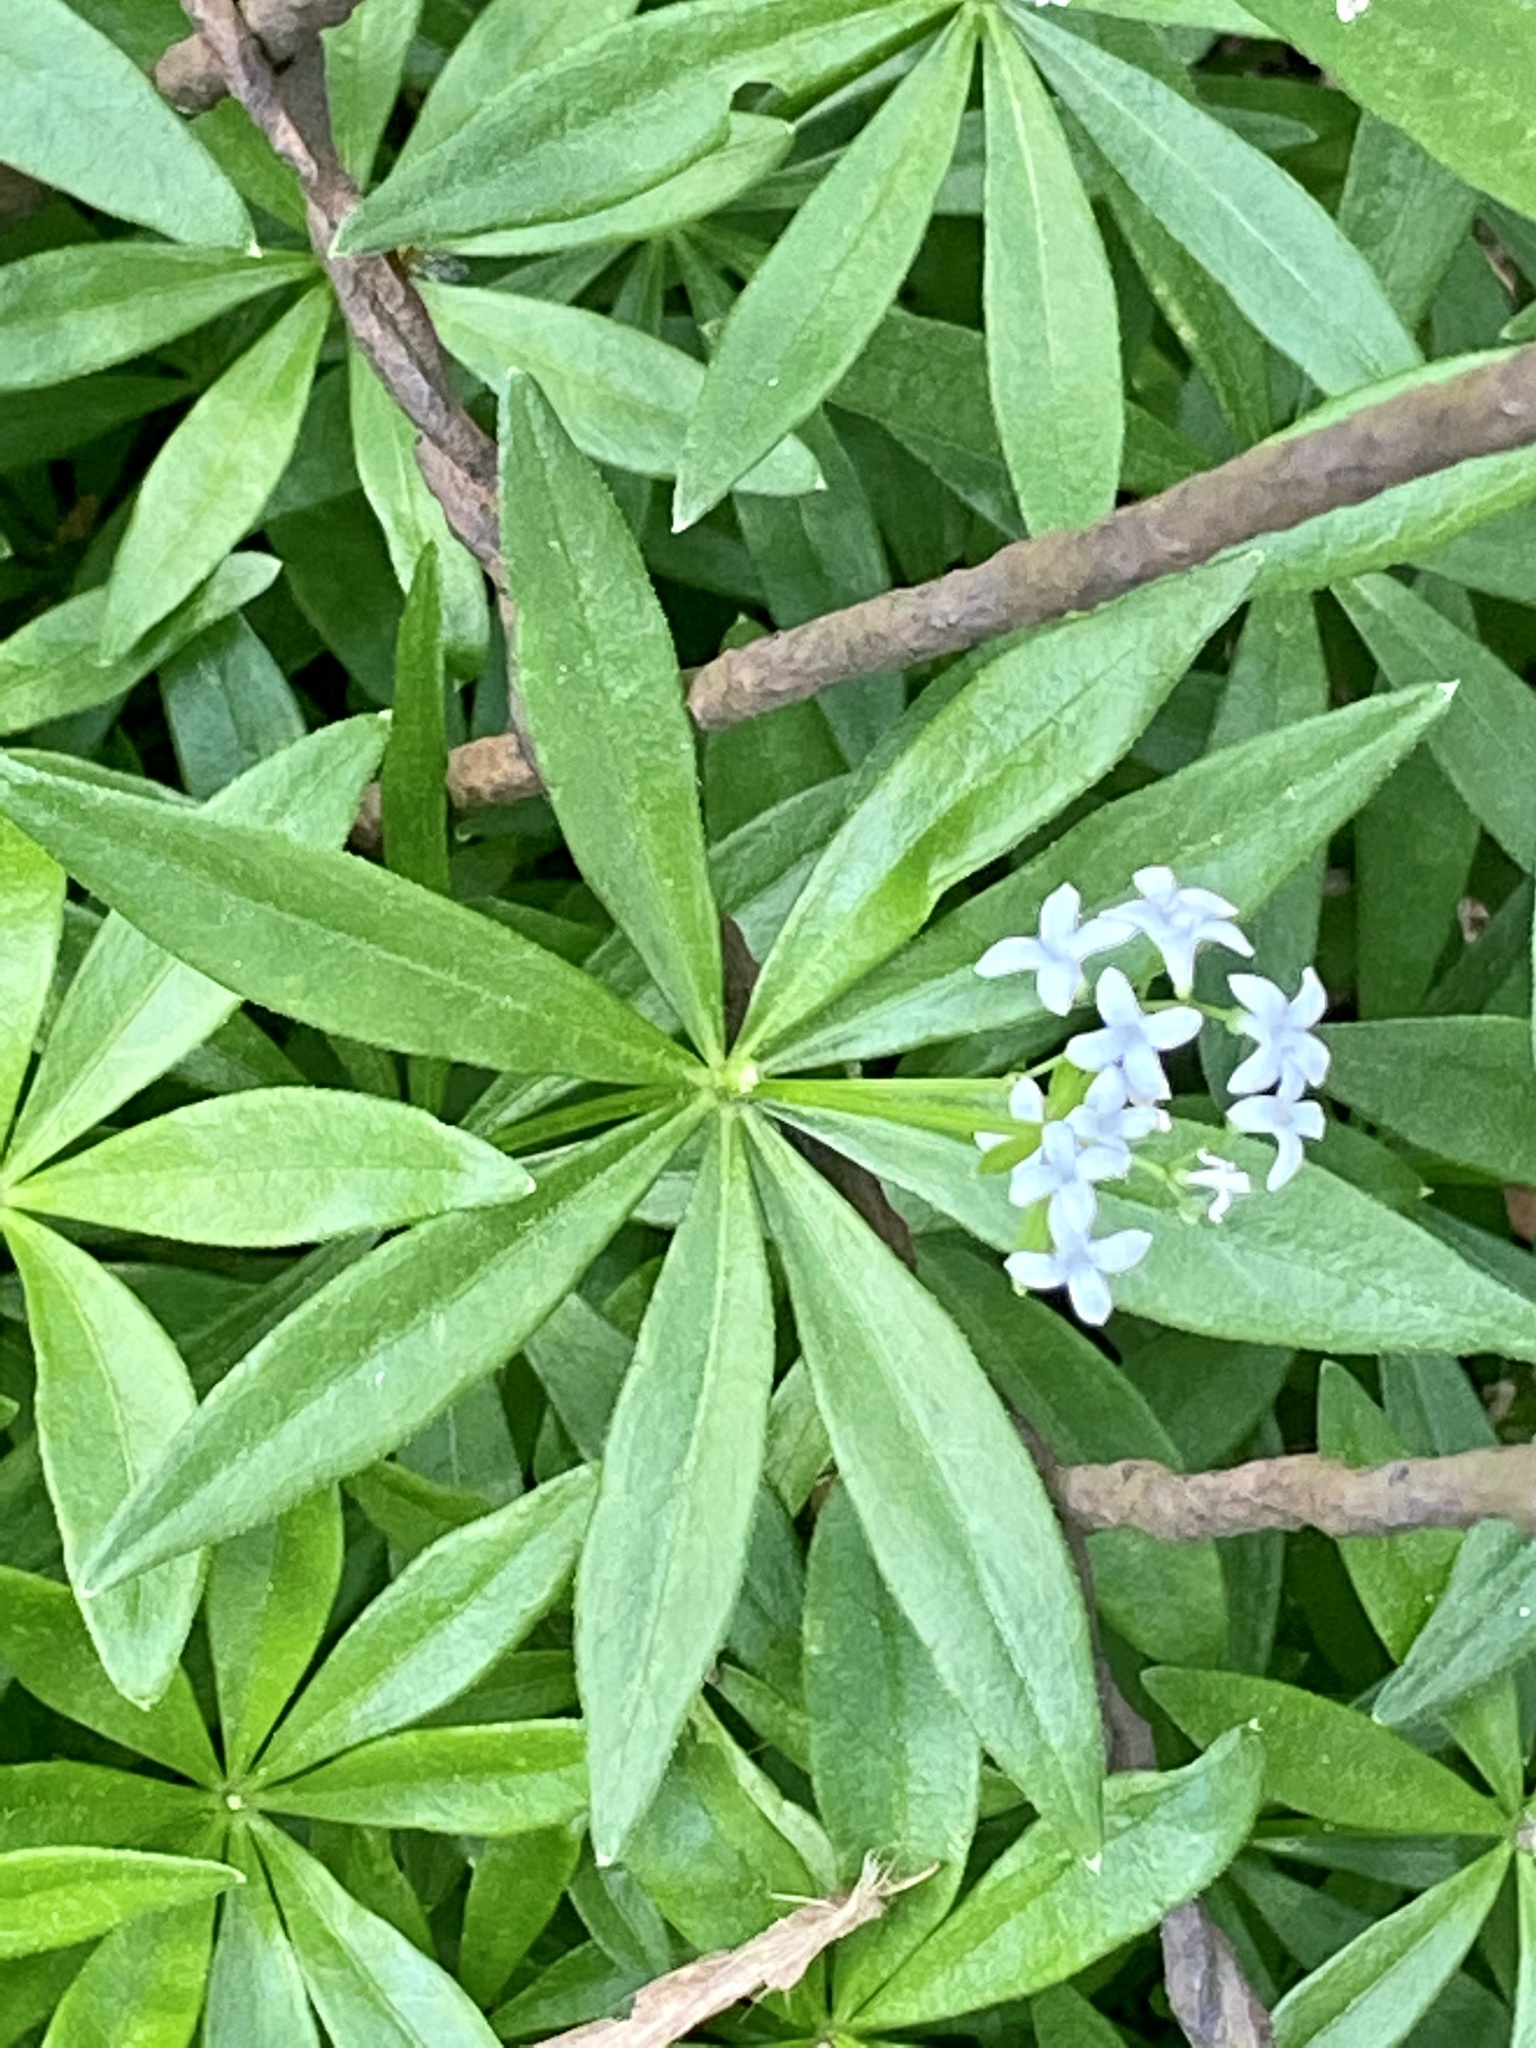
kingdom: Plantae
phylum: Tracheophyta
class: Magnoliopsida
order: Gentianales
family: Rubiaceae
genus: Galium
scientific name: Galium odoratum
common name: Sweet woodruff
